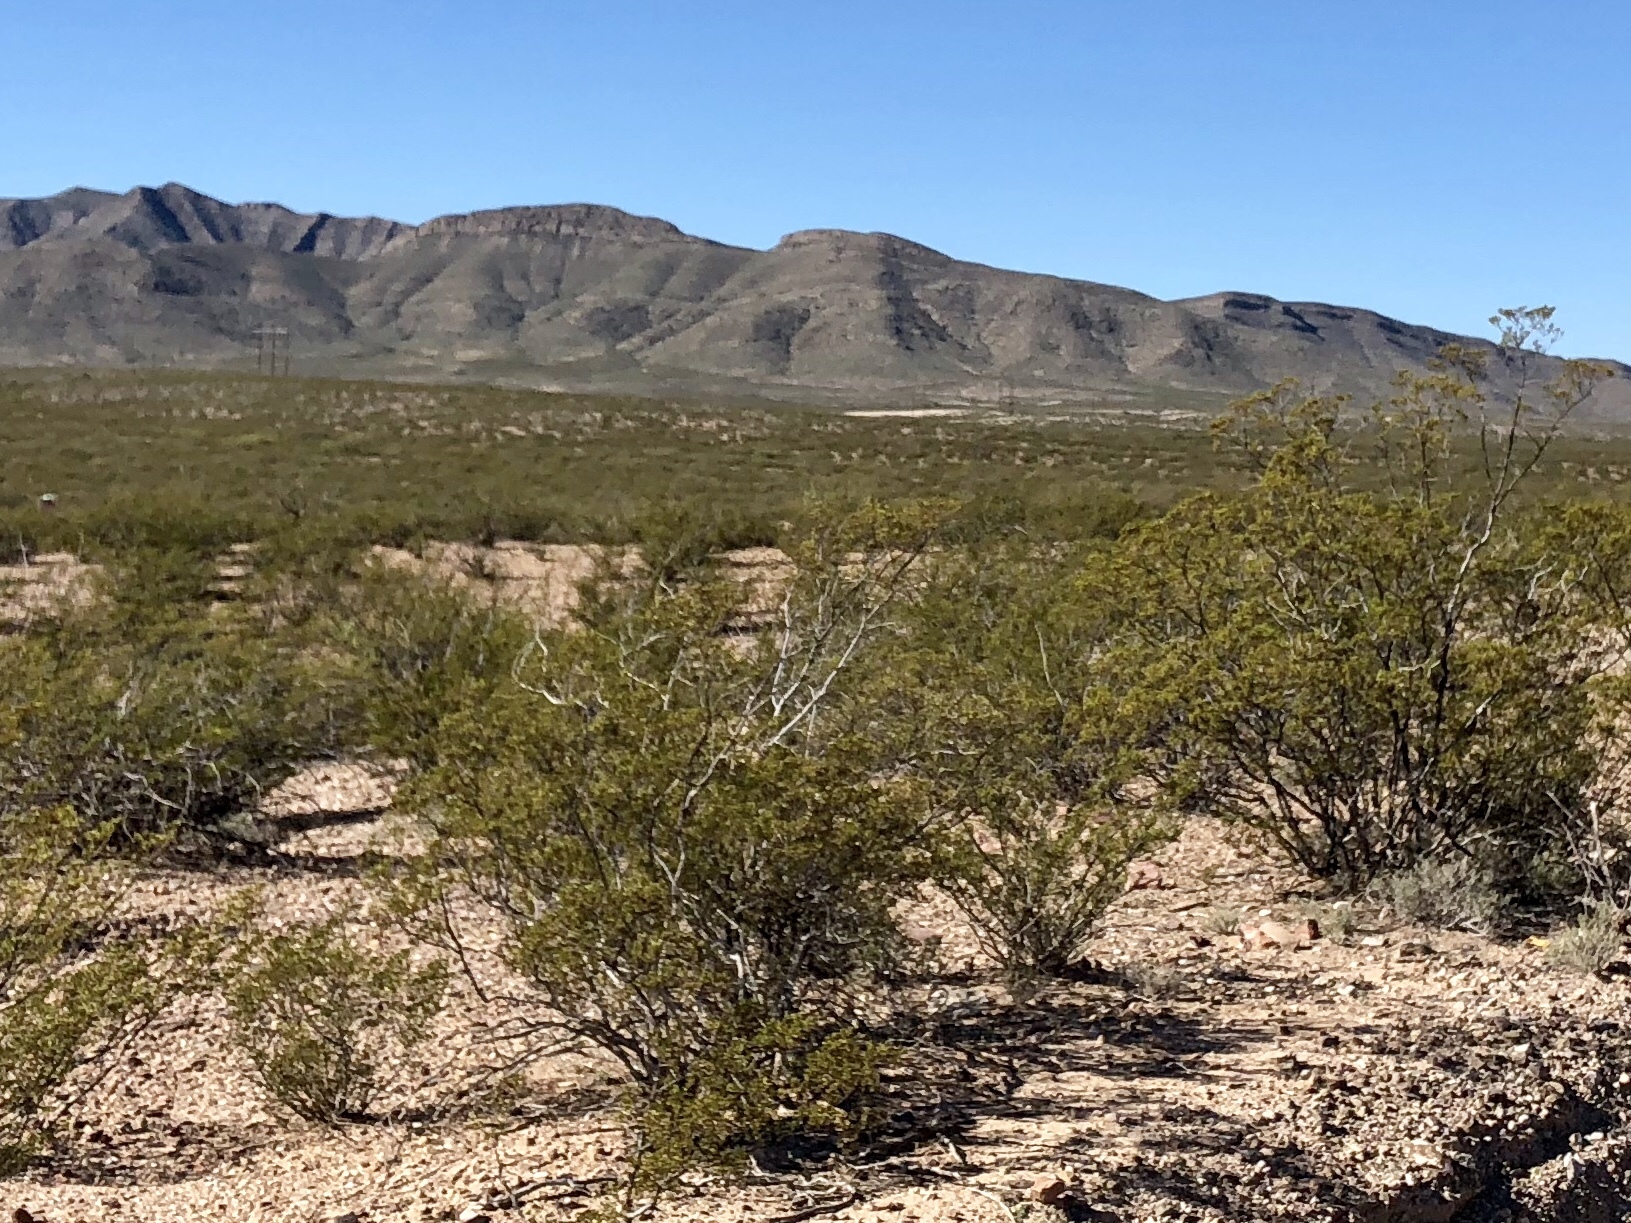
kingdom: Plantae
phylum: Tracheophyta
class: Magnoliopsida
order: Zygophyllales
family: Zygophyllaceae
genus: Larrea
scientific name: Larrea tridentata
